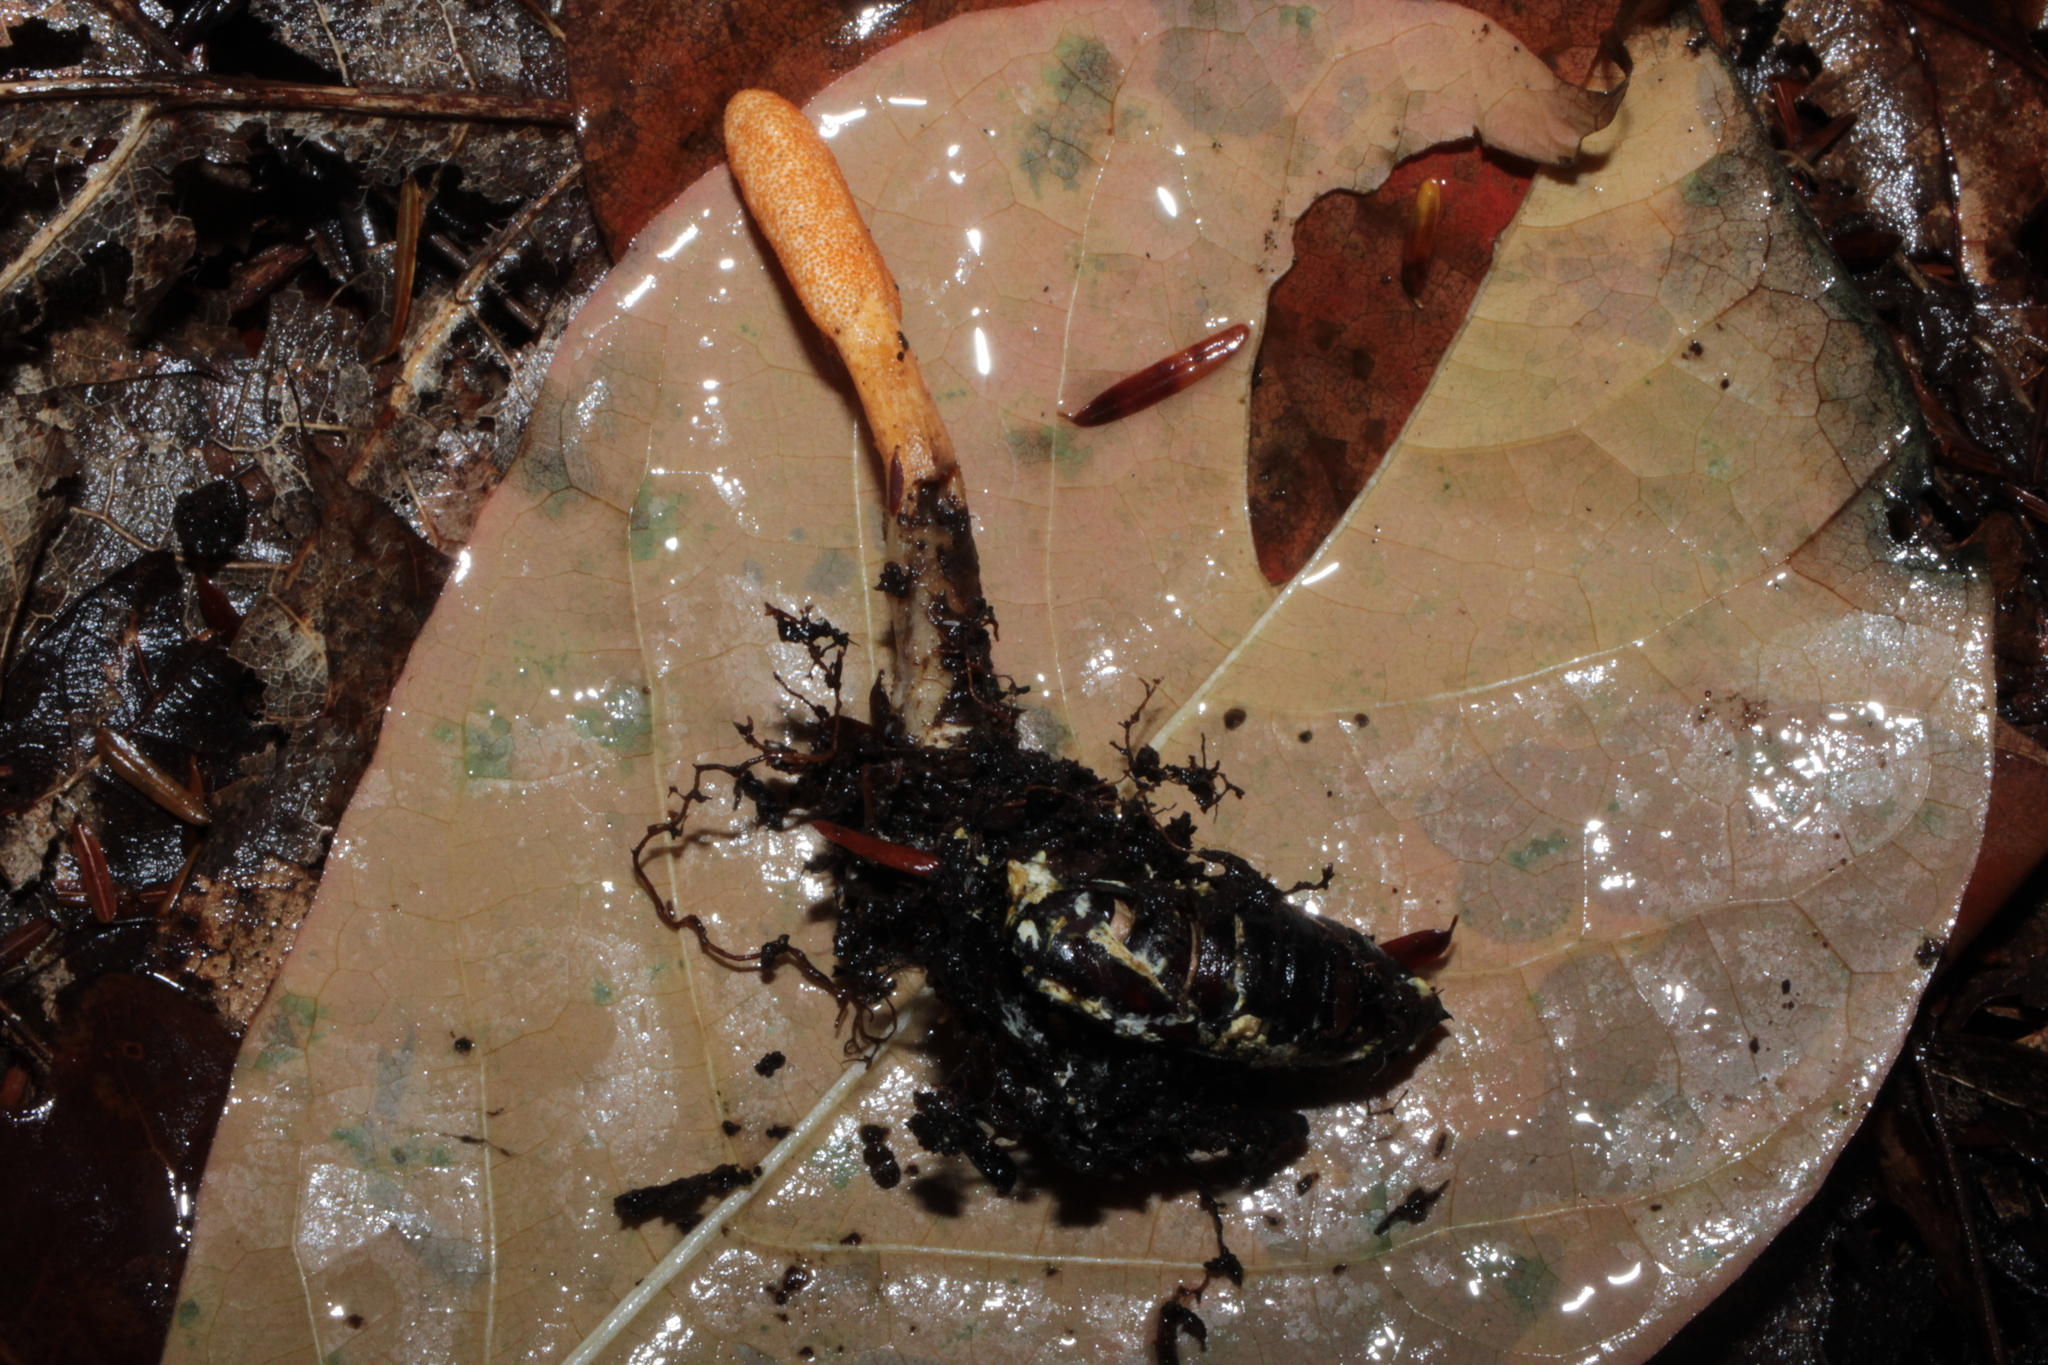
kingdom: Fungi
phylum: Ascomycota
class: Sordariomycetes
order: Hypocreales
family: Cordycipitaceae
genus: Cordyceps
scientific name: Cordyceps militaris
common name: Scarlet caterpillar fungus
